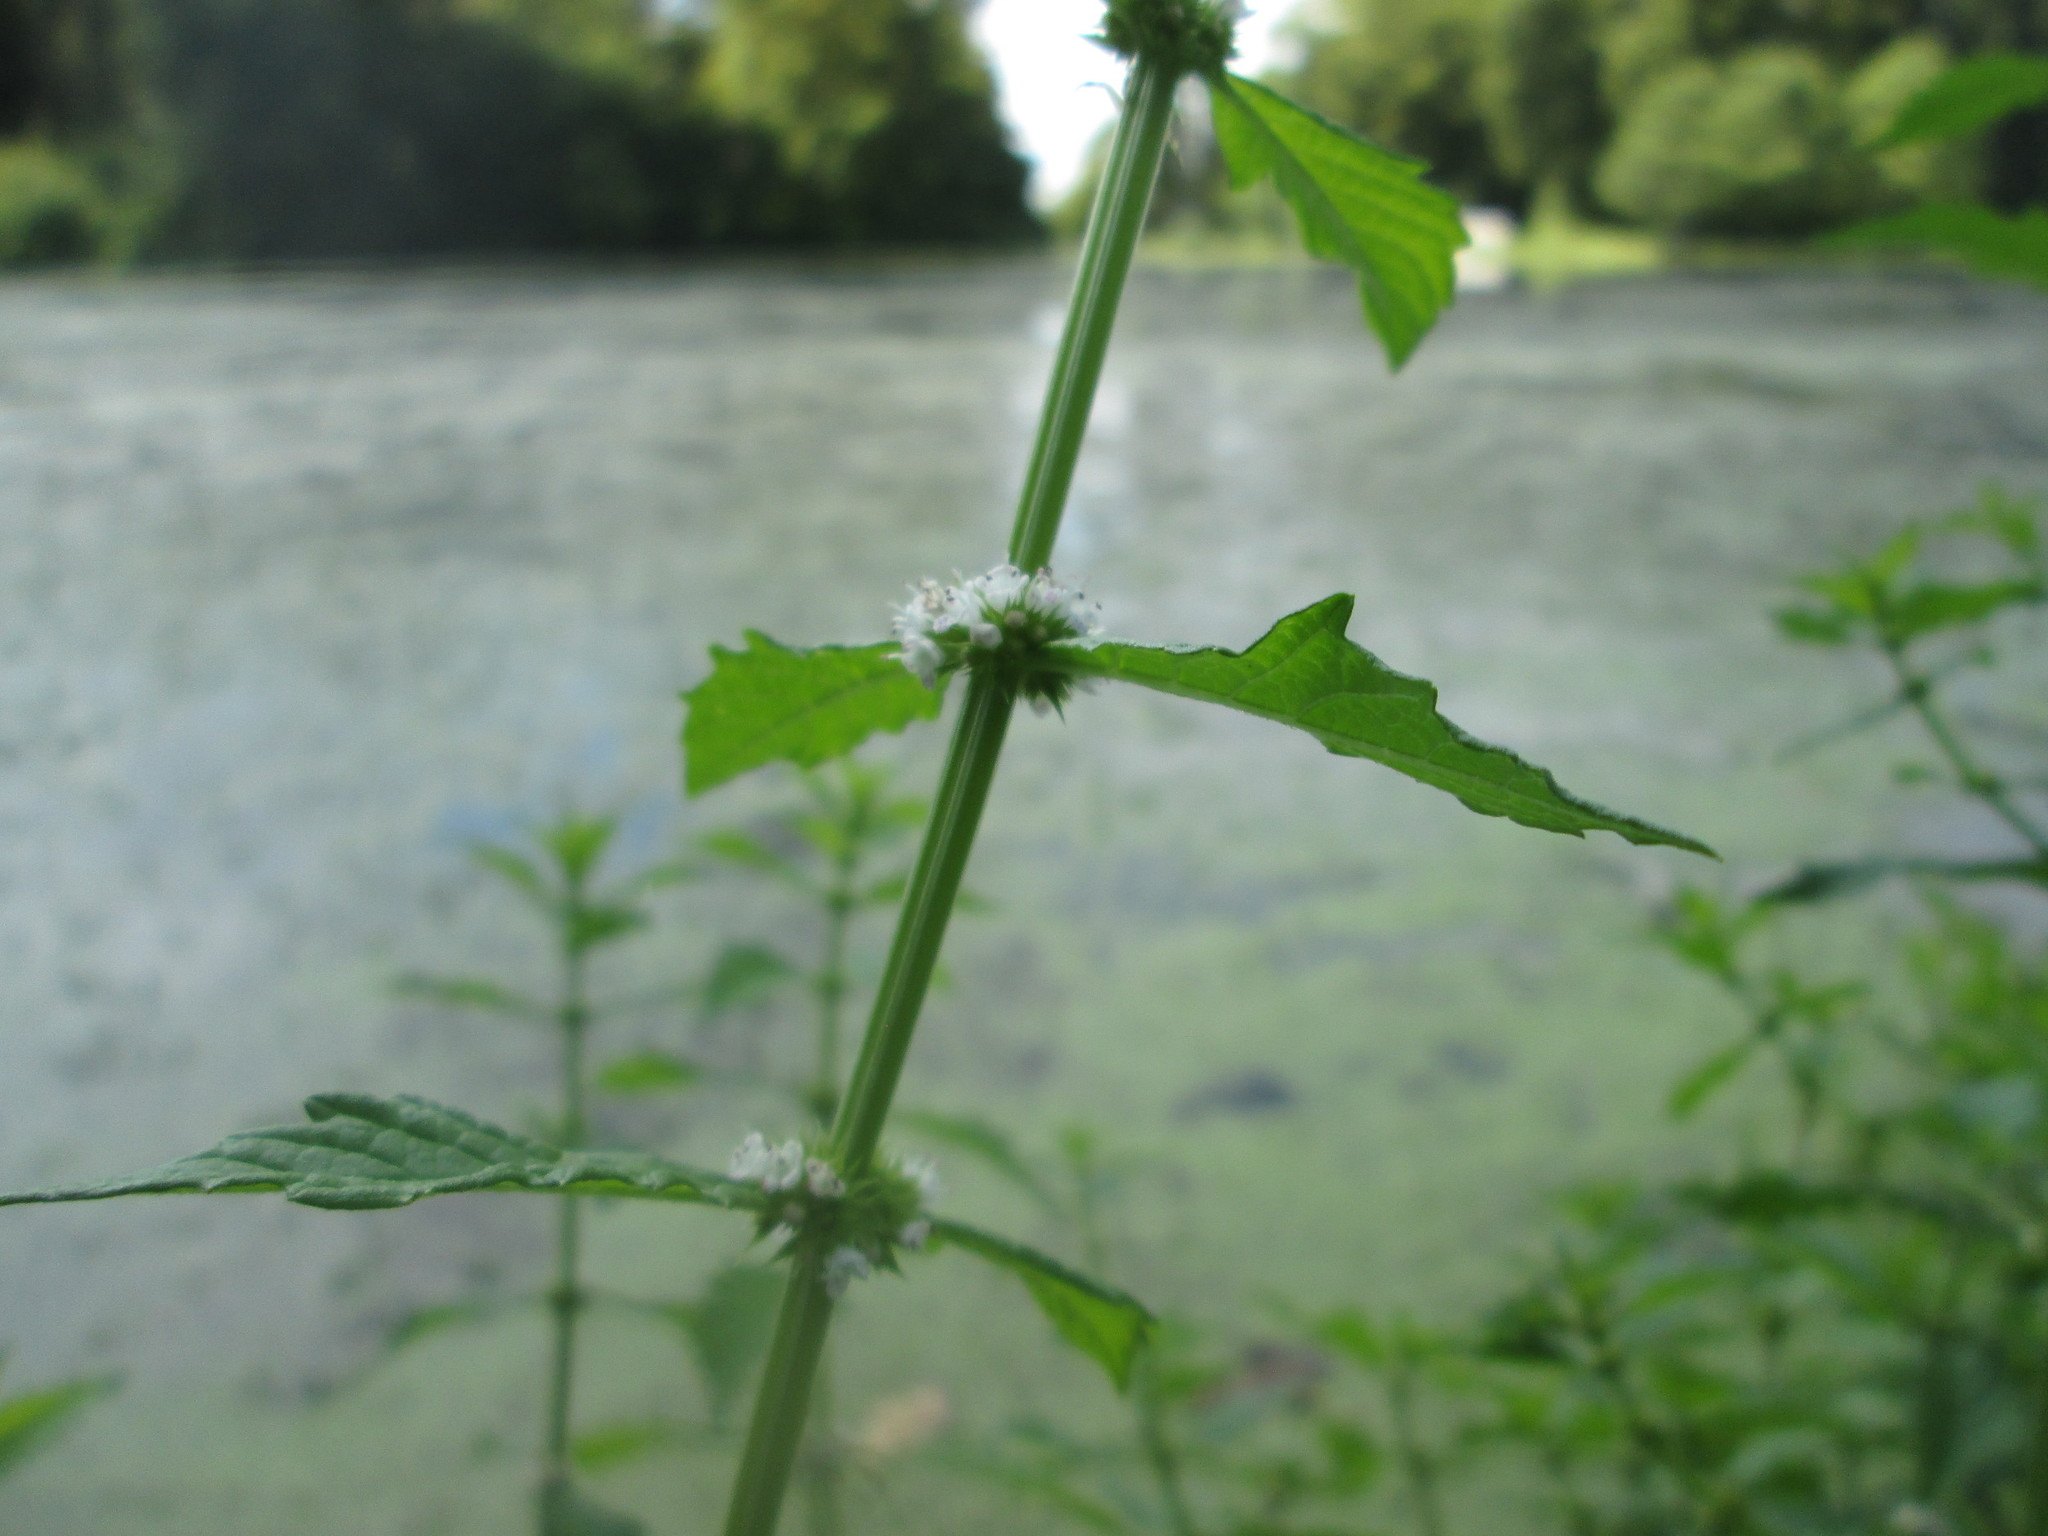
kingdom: Plantae
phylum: Tracheophyta
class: Magnoliopsida
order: Lamiales
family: Lamiaceae
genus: Lycopus
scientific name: Lycopus europaeus
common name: European bugleweed
